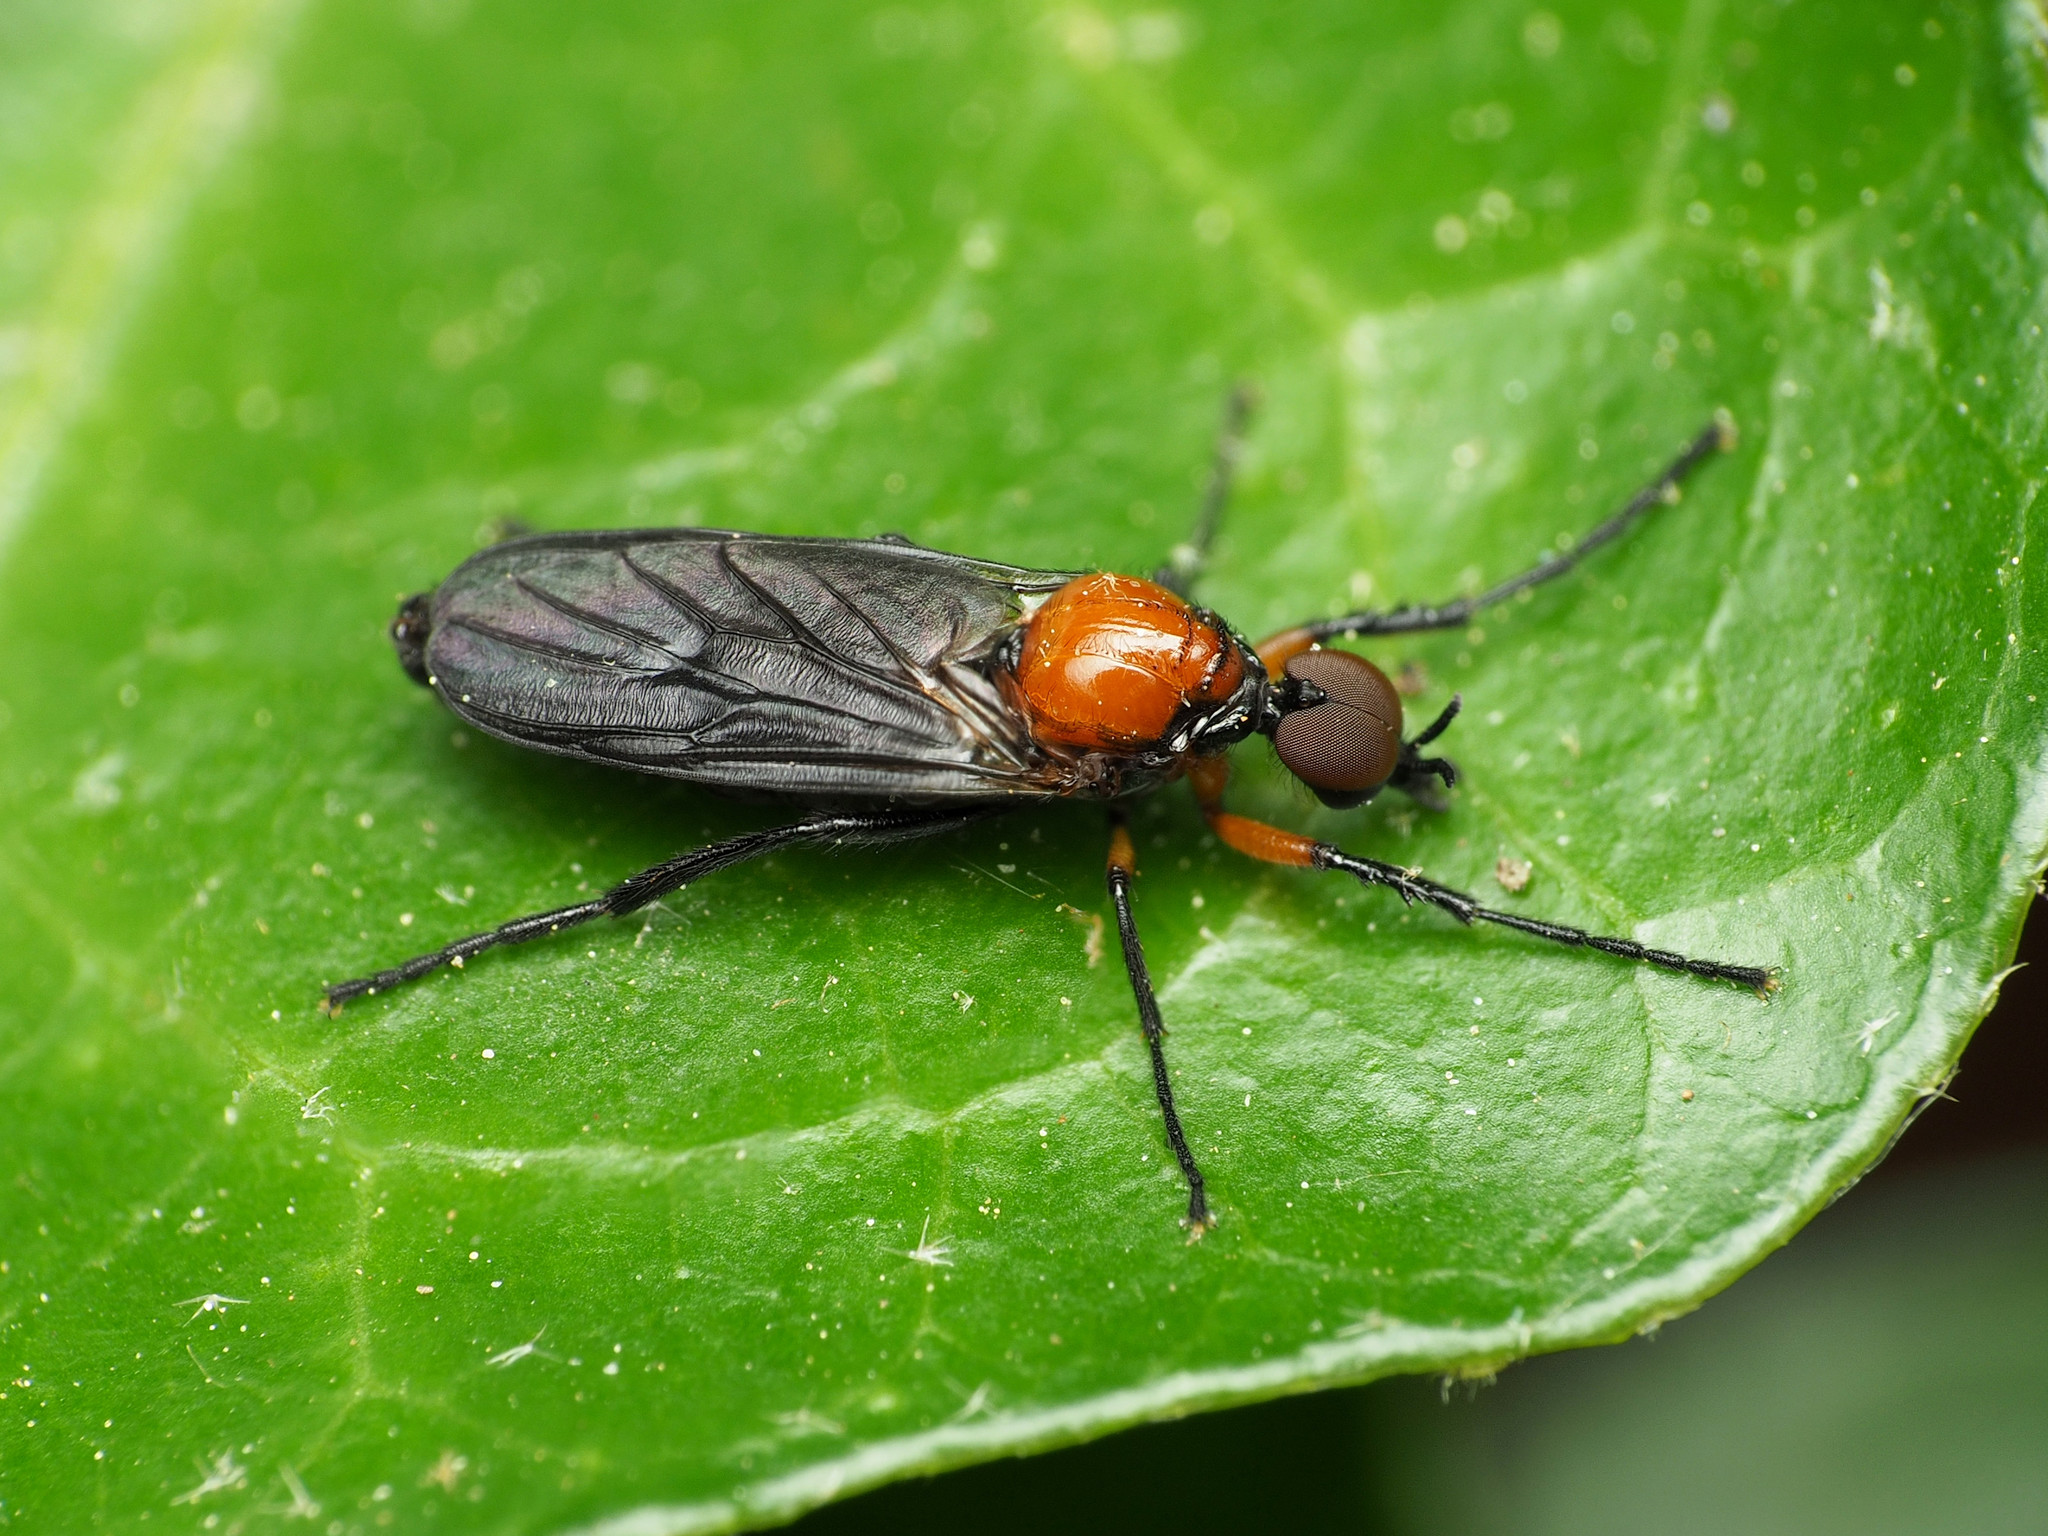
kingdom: Animalia
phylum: Arthropoda
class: Insecta
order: Diptera
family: Bibionidae
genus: Dilophus
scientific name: Dilophus spinipes
